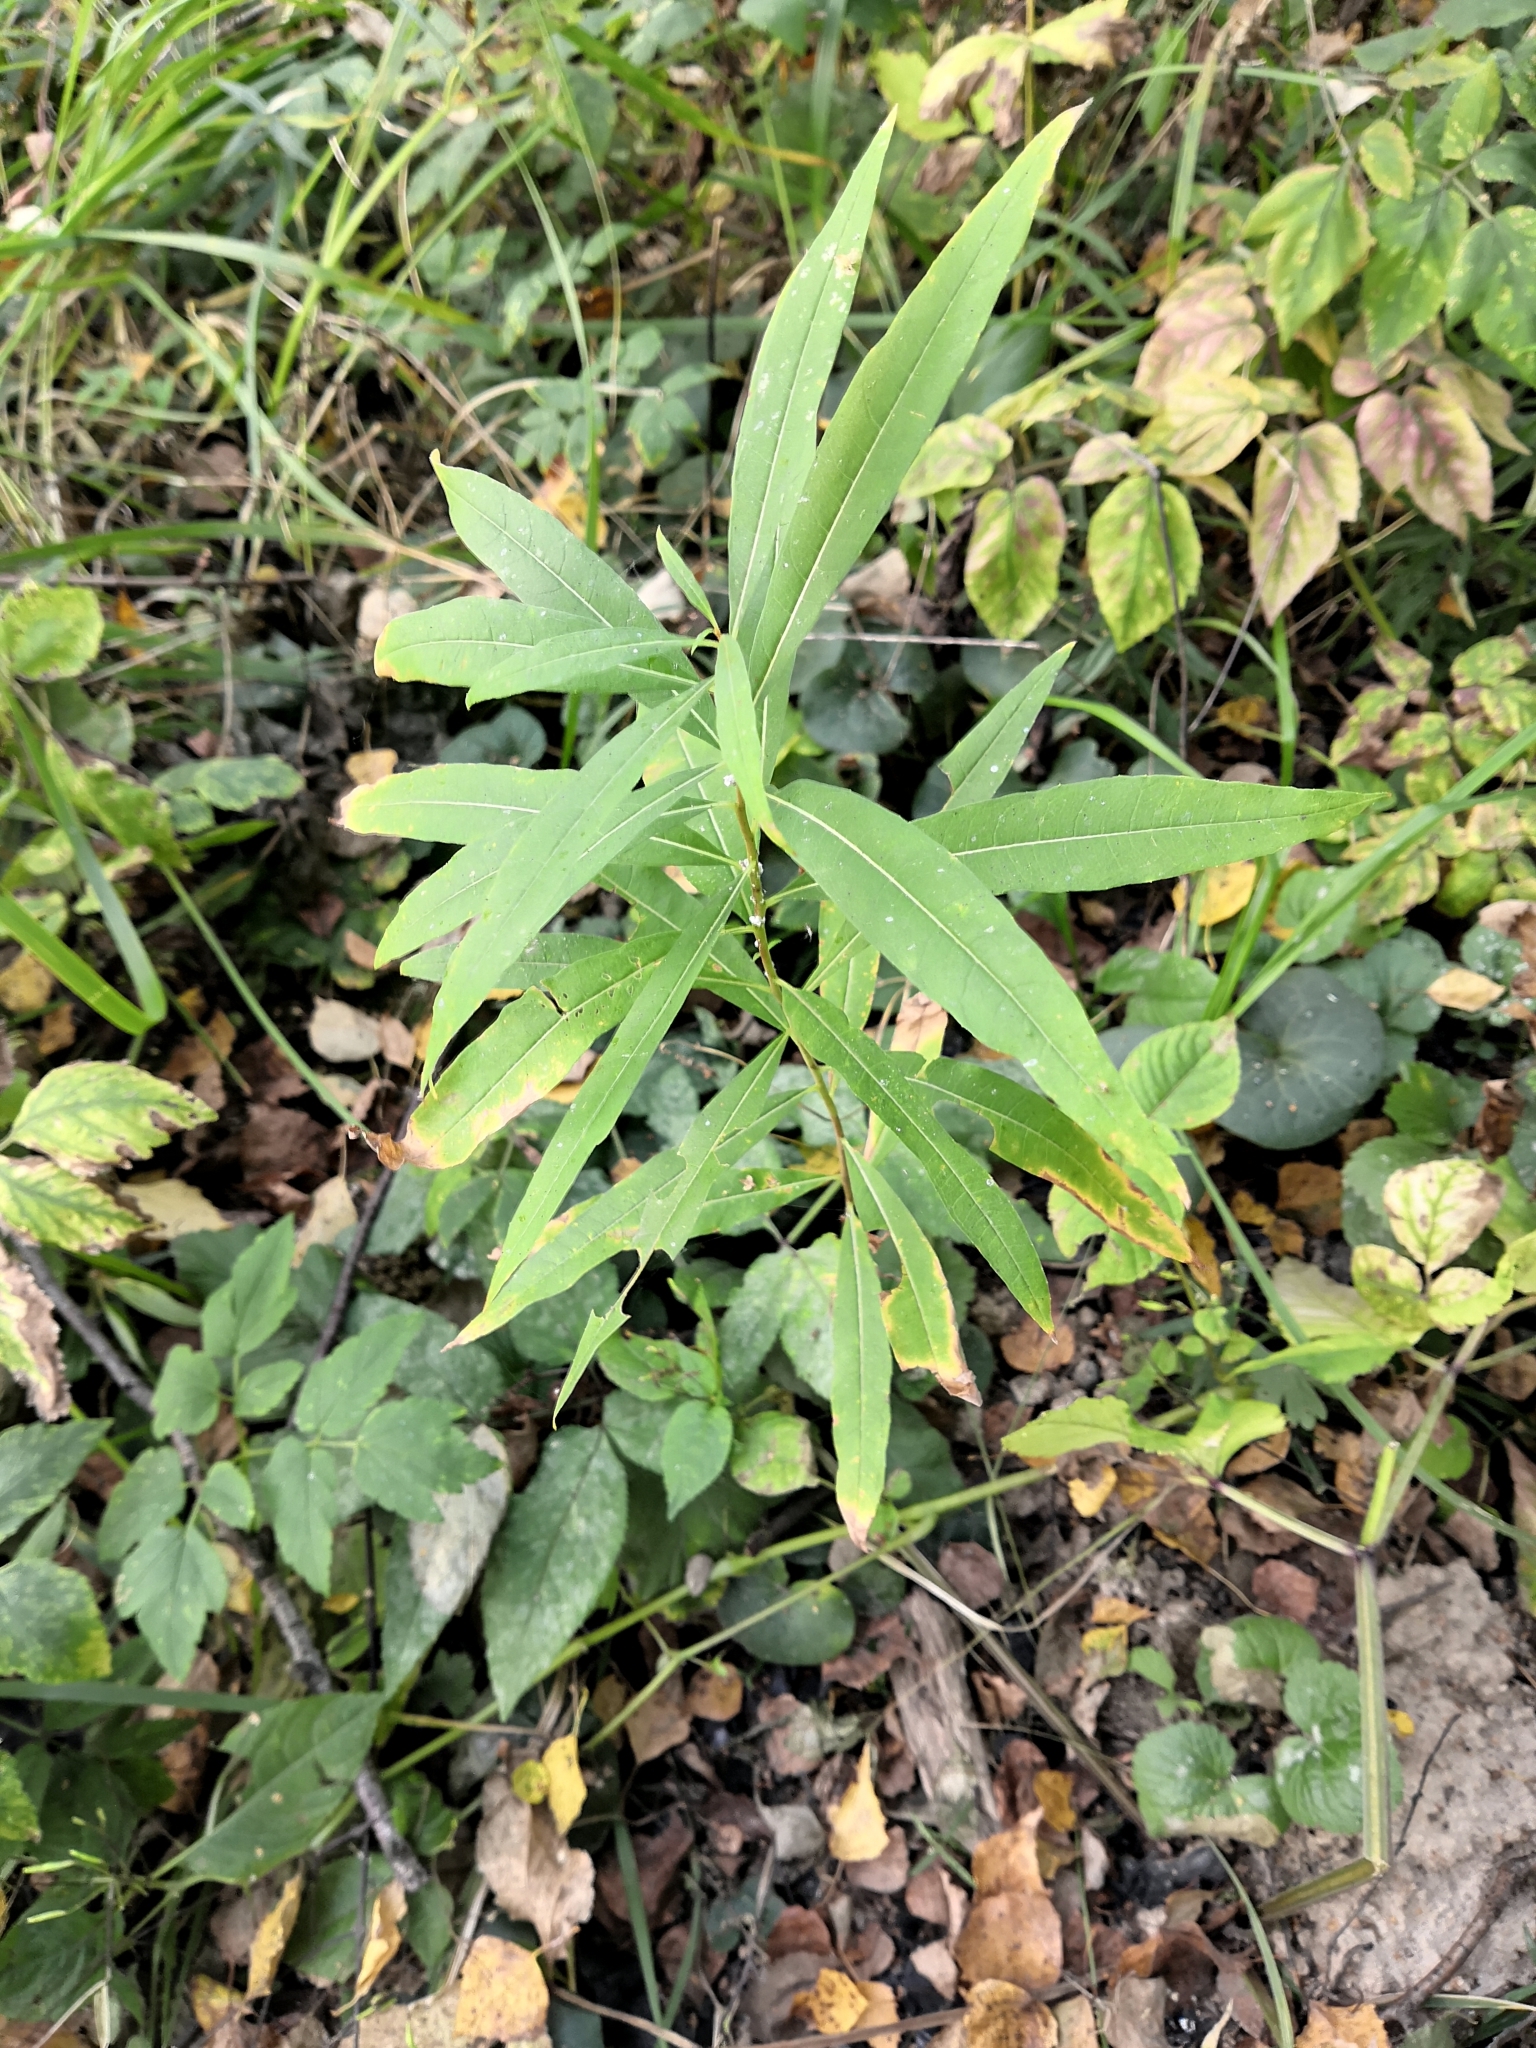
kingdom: Plantae
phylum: Tracheophyta
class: Magnoliopsida
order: Myrtales
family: Onagraceae
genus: Chamaenerion
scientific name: Chamaenerion angustifolium
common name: Fireweed
